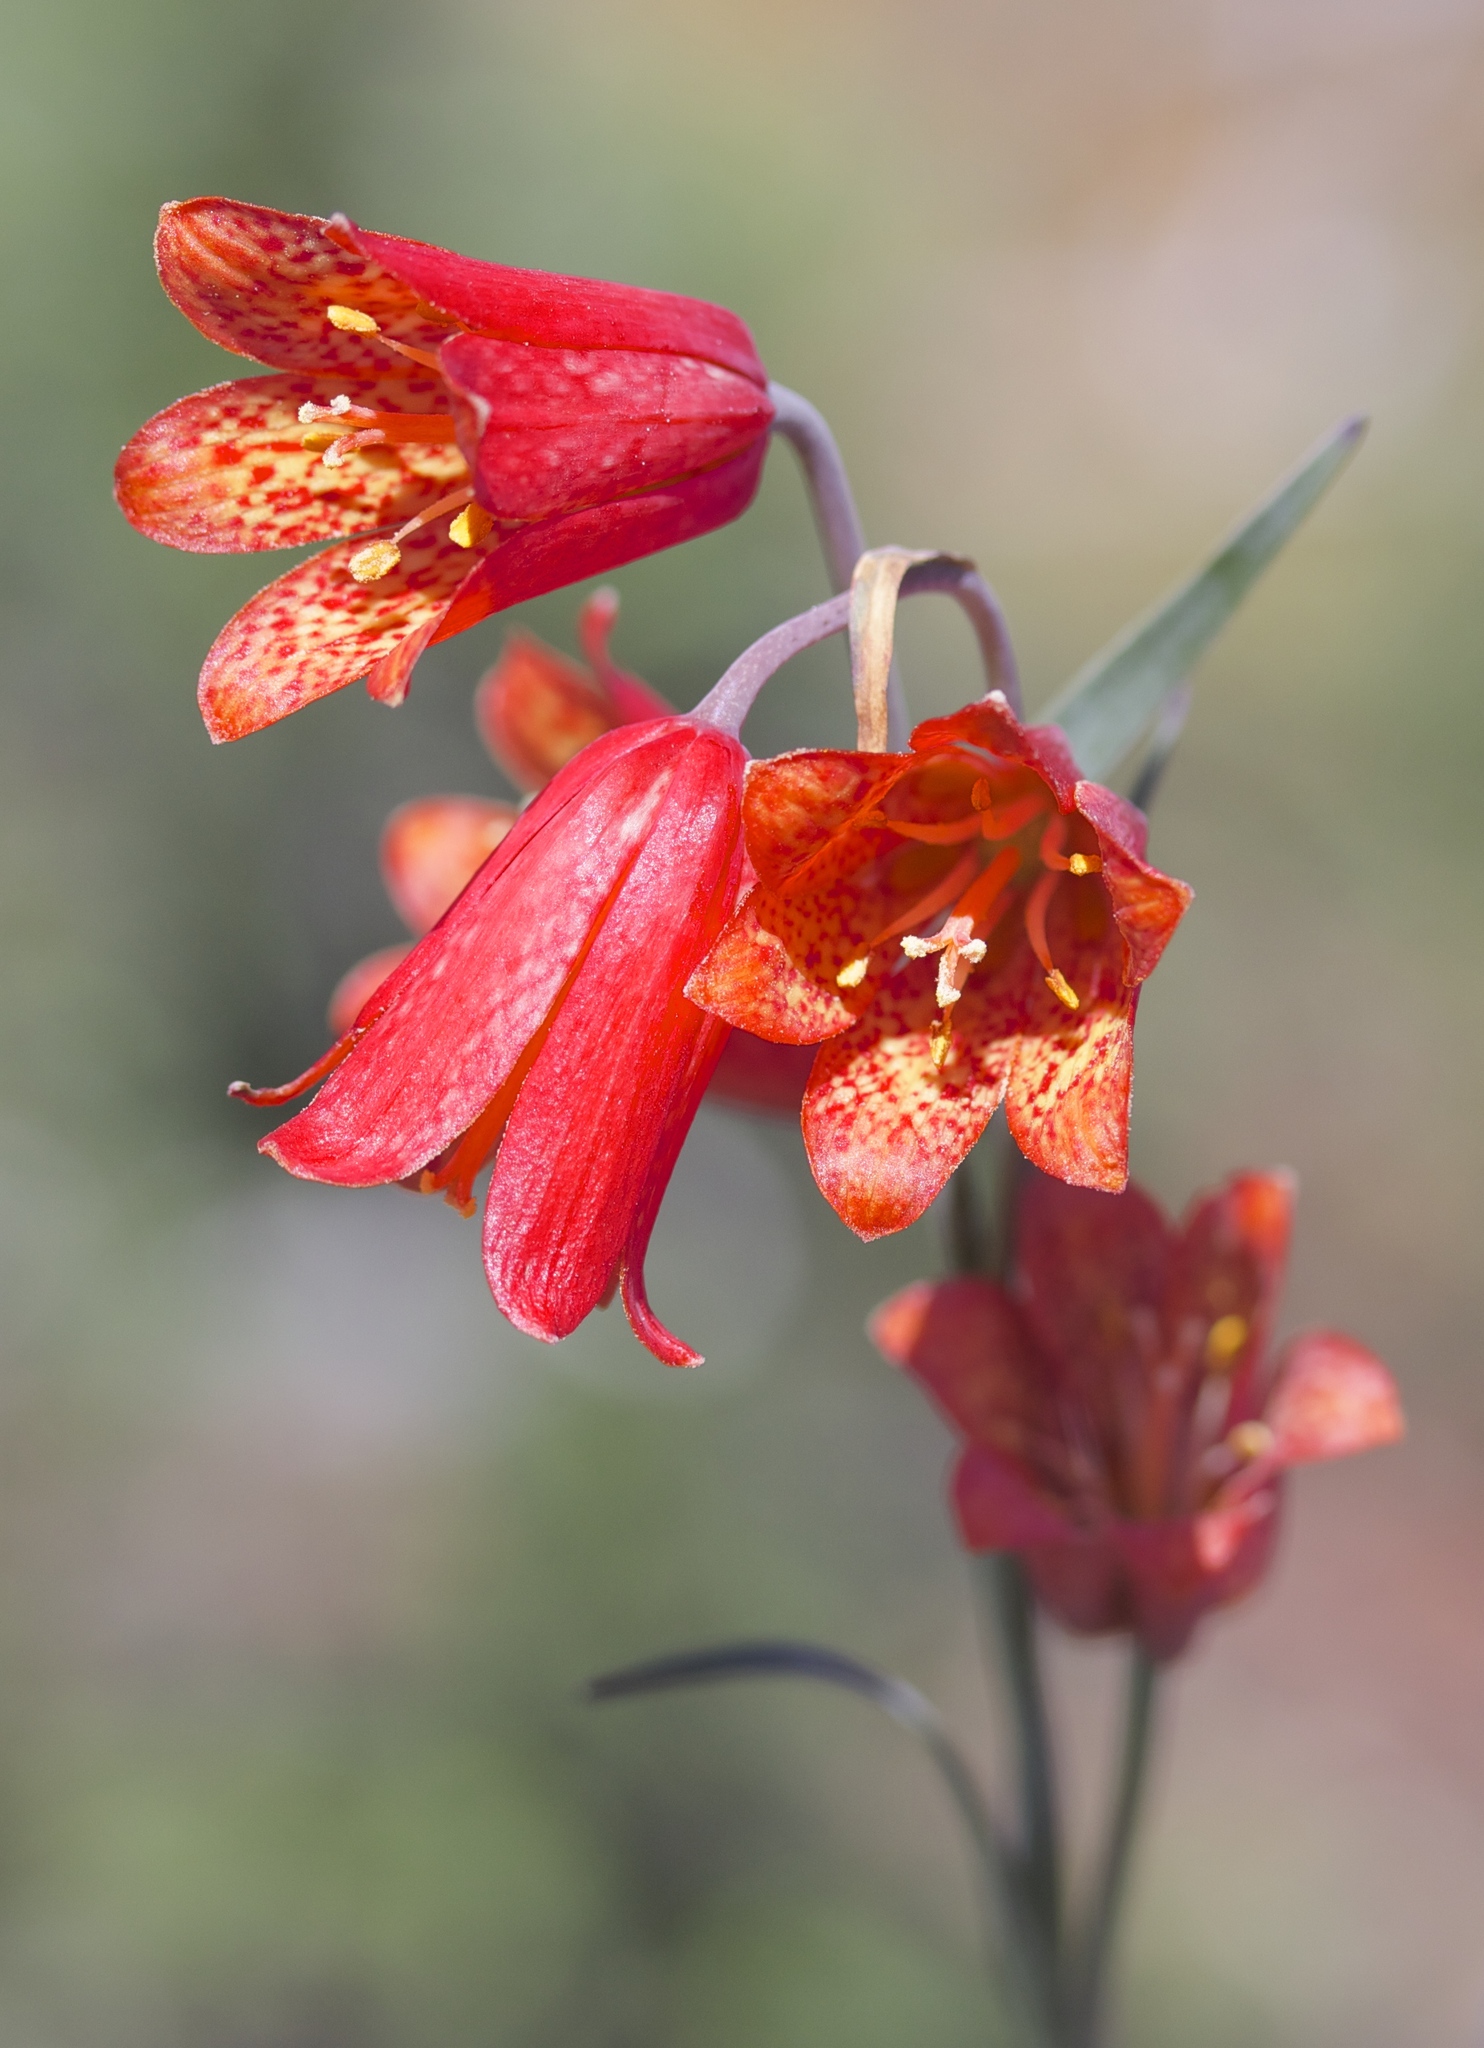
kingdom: Plantae
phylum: Tracheophyta
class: Liliopsida
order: Liliales
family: Liliaceae
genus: Fritillaria
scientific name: Fritillaria recurva
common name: Scarlet fritillary
